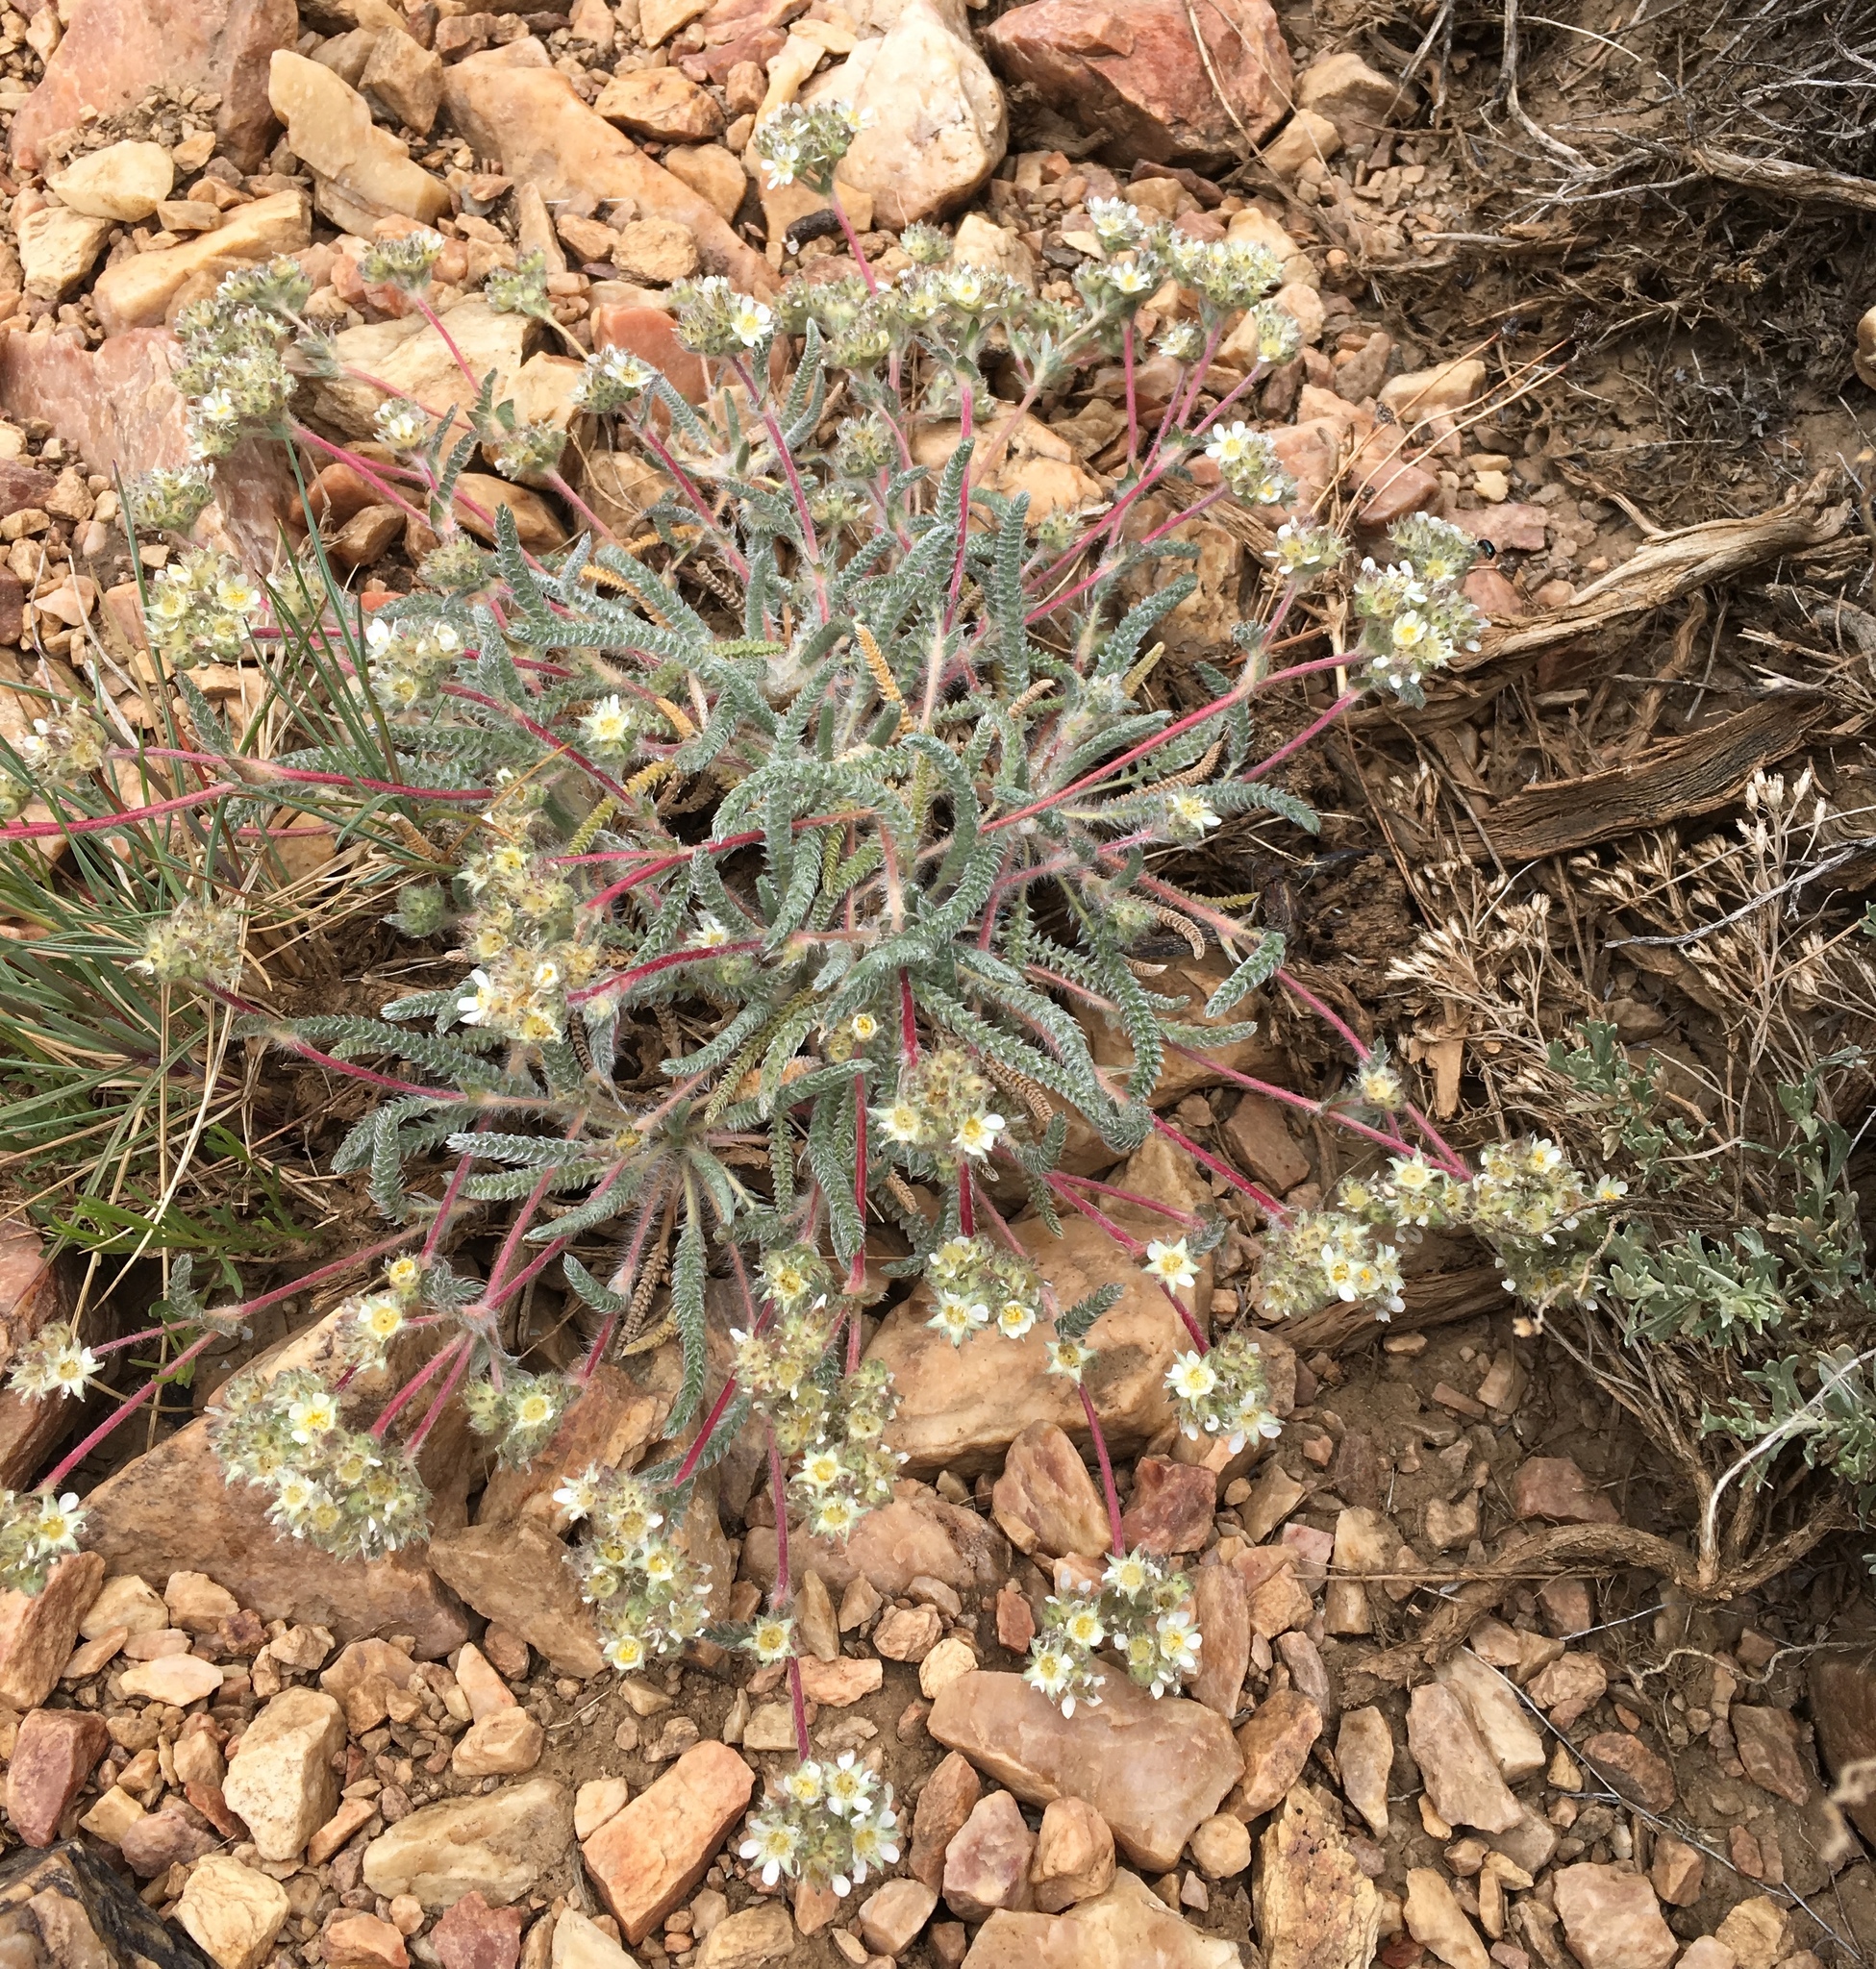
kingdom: Plantae
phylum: Tracheophyta
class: Magnoliopsida
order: Rosales
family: Rosaceae
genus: Potentilla
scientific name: Potentilla argyrocoma
